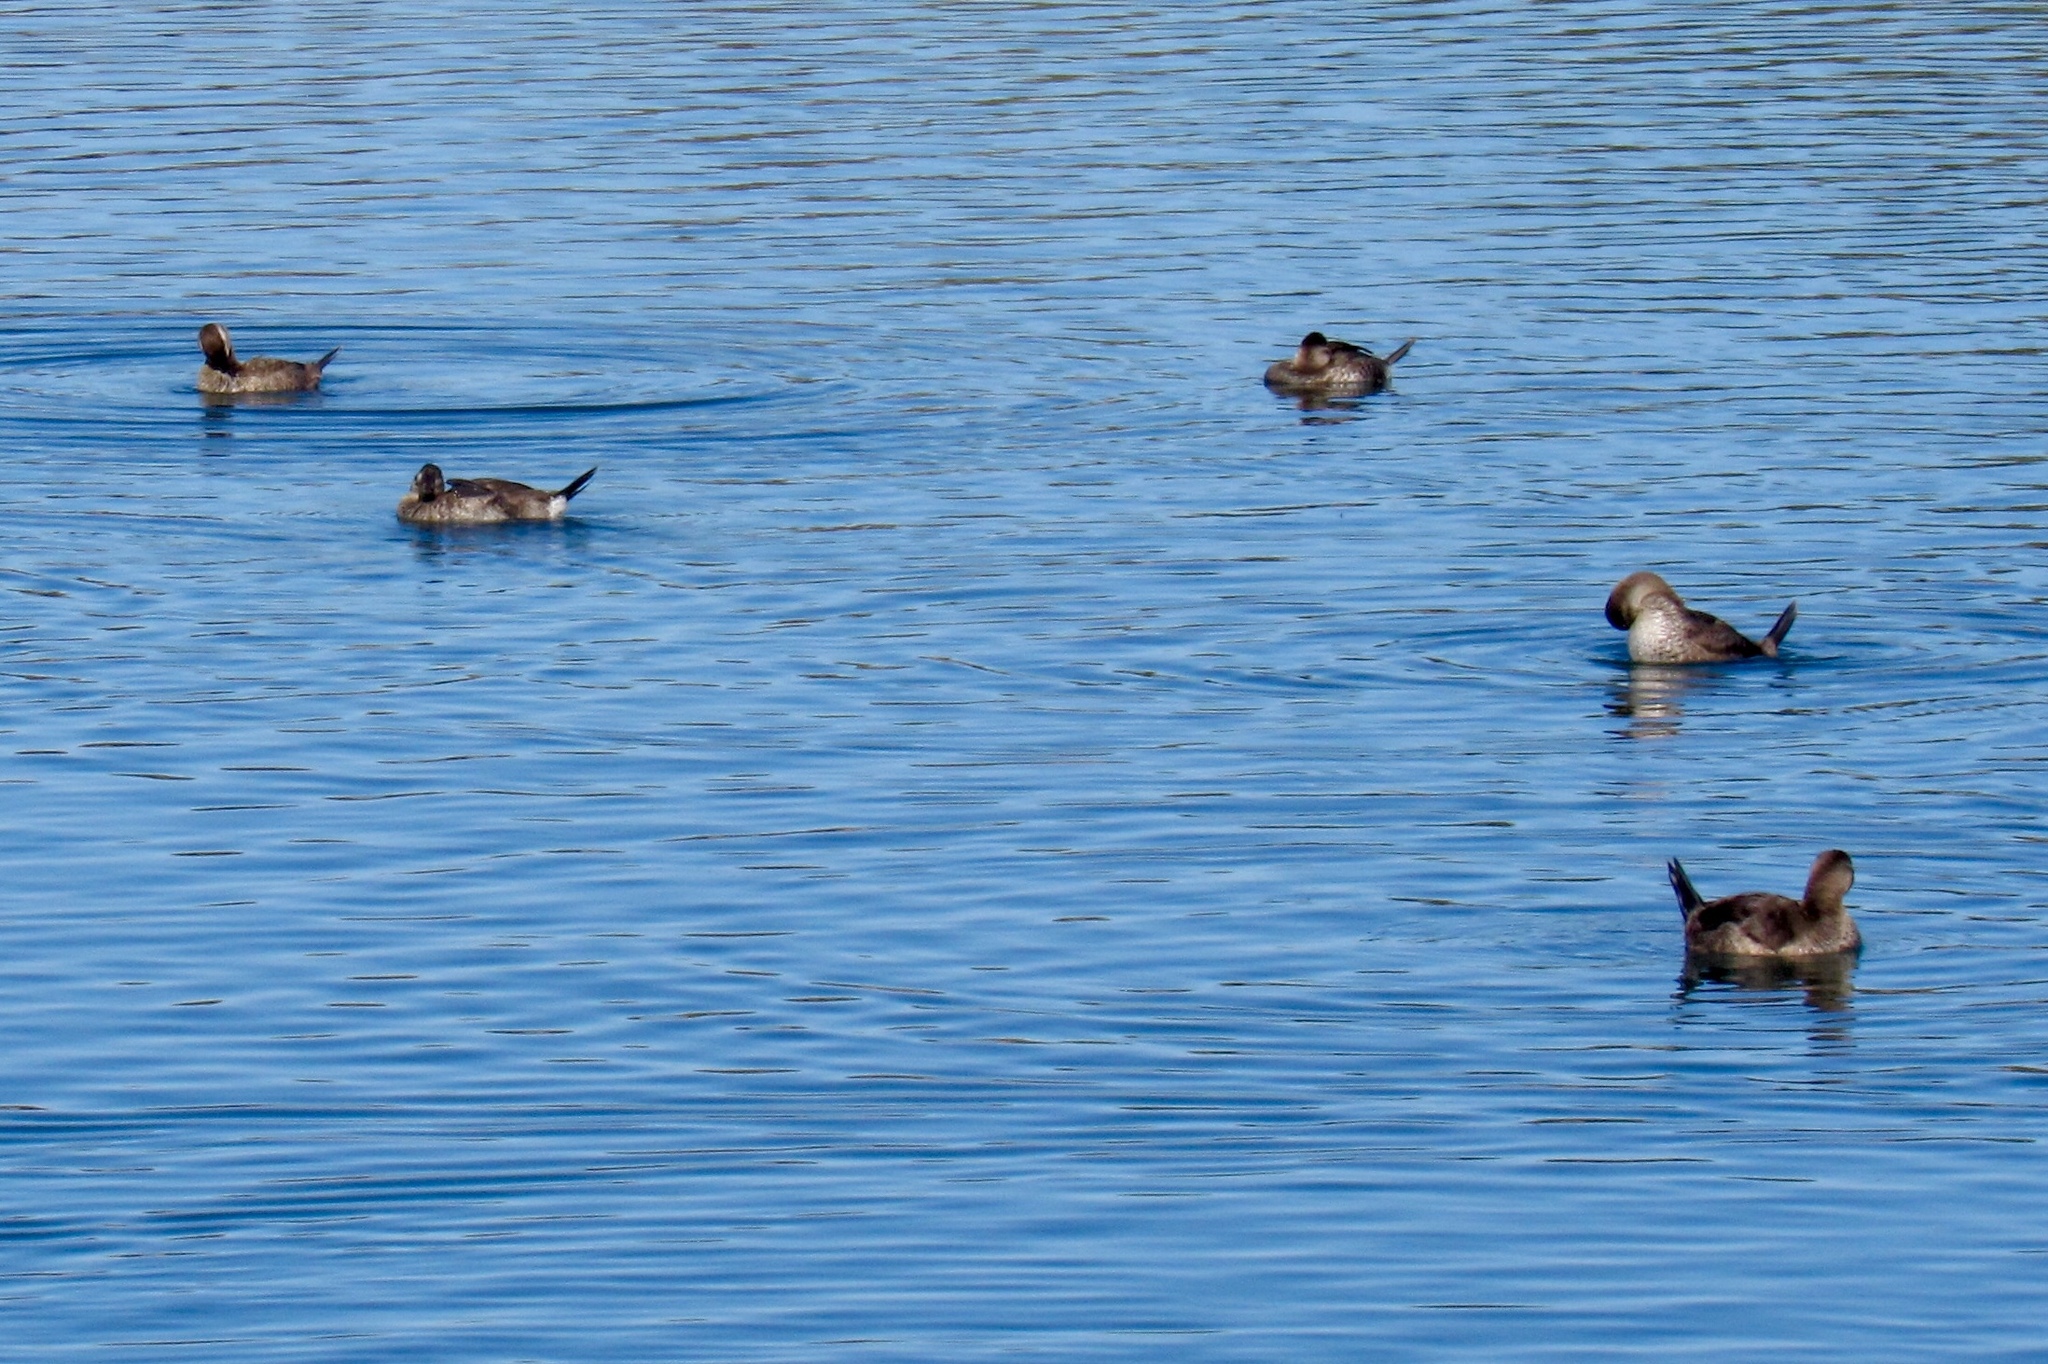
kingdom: Animalia
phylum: Chordata
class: Aves
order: Anseriformes
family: Anatidae
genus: Oxyura
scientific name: Oxyura jamaicensis
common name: Ruddy duck
